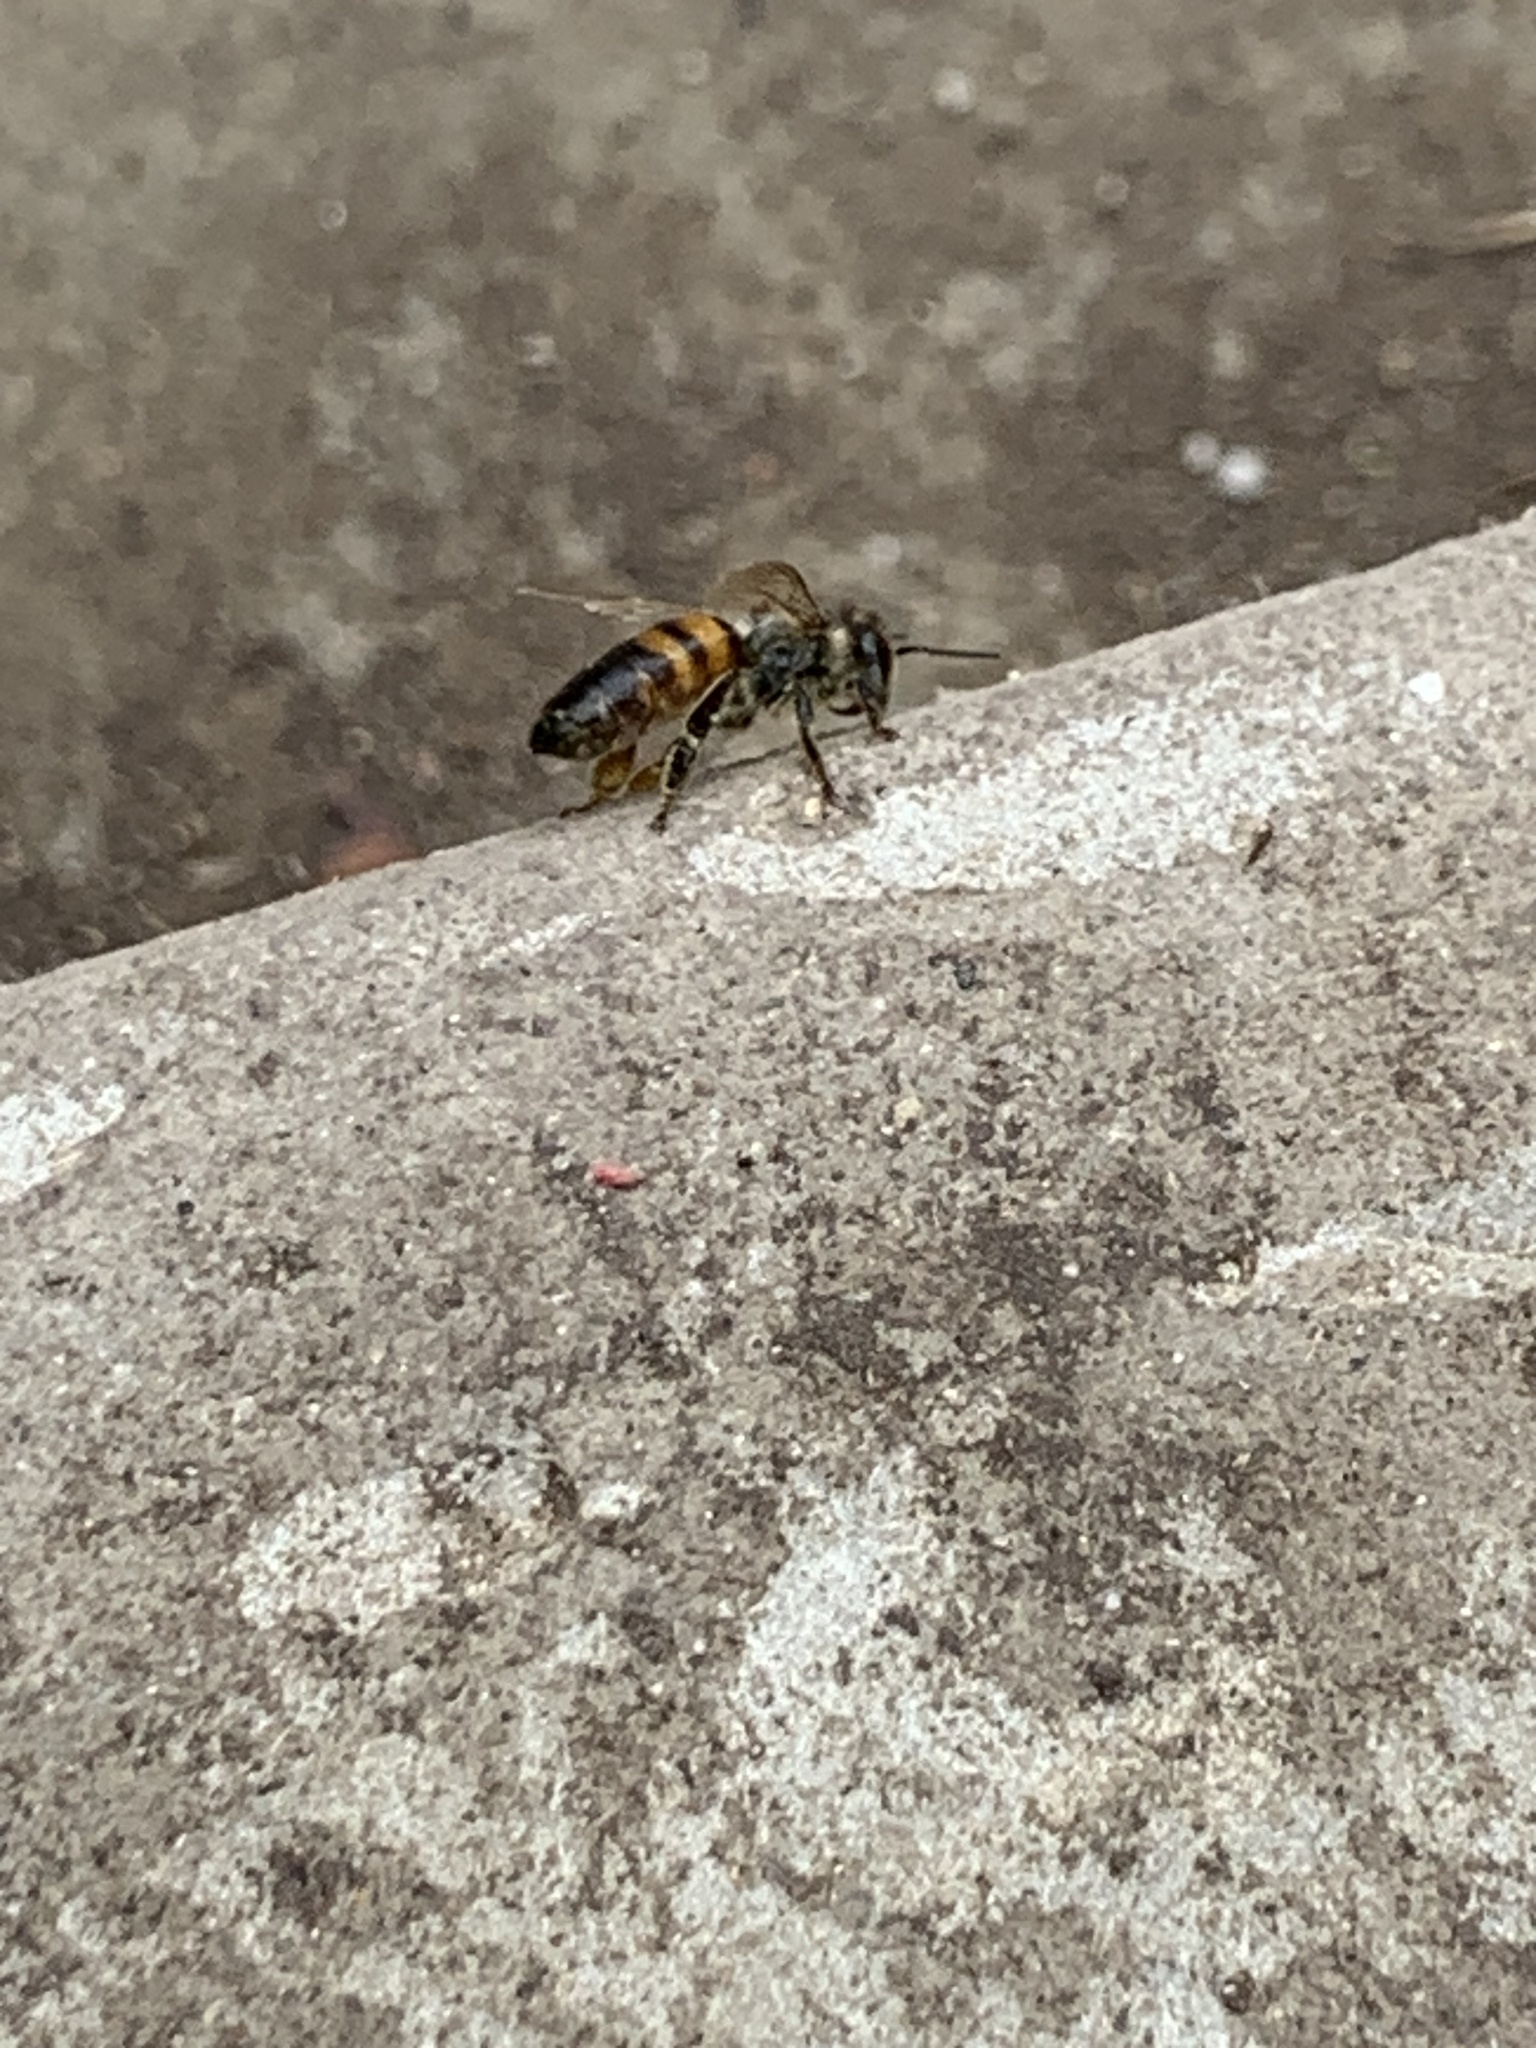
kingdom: Animalia
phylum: Arthropoda
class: Insecta
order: Hymenoptera
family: Apidae
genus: Apis
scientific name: Apis mellifera
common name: Honey bee
